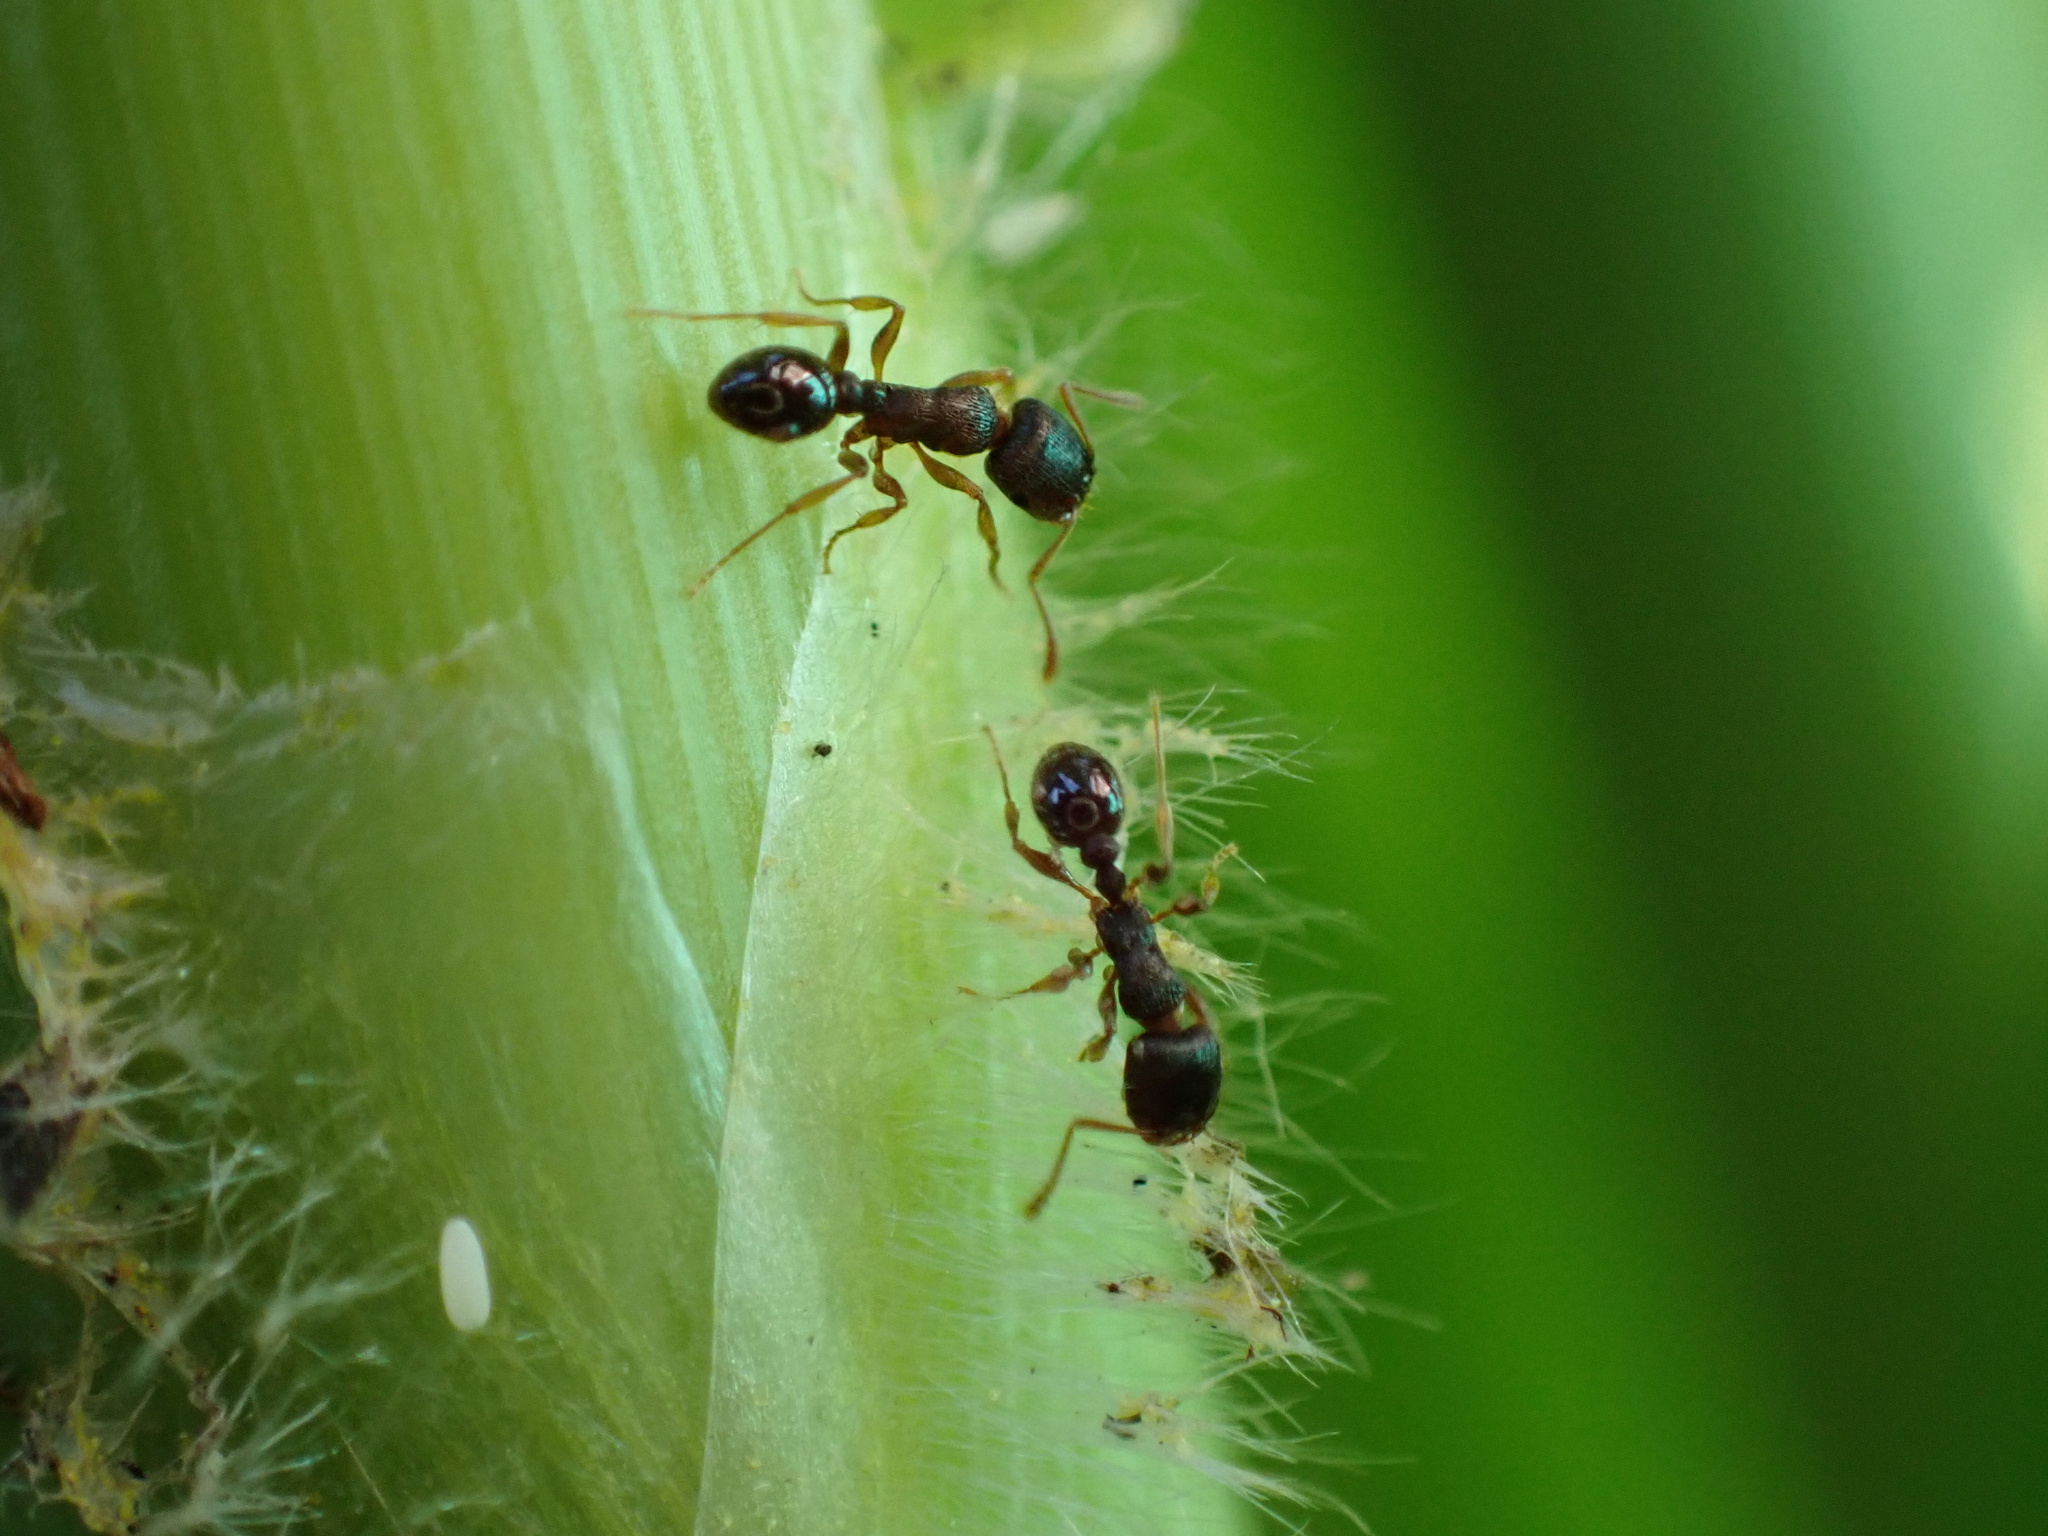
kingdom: Animalia
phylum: Arthropoda
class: Insecta
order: Hymenoptera
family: Formicidae
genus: Tetramorium
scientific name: Tetramorium immigrans
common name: Pavement ant
